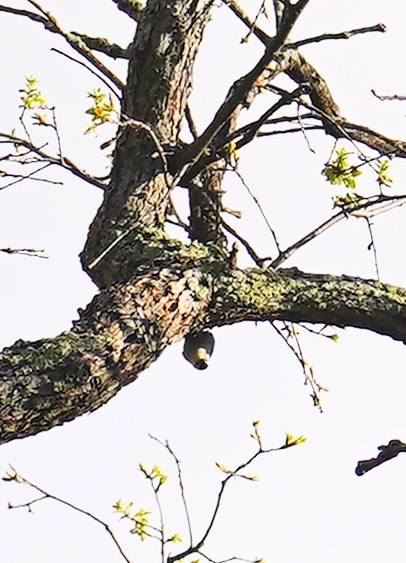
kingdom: Animalia
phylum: Chordata
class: Aves
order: Passeriformes
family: Sittidae
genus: Sitta
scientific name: Sitta carolinensis
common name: White-breasted nuthatch
